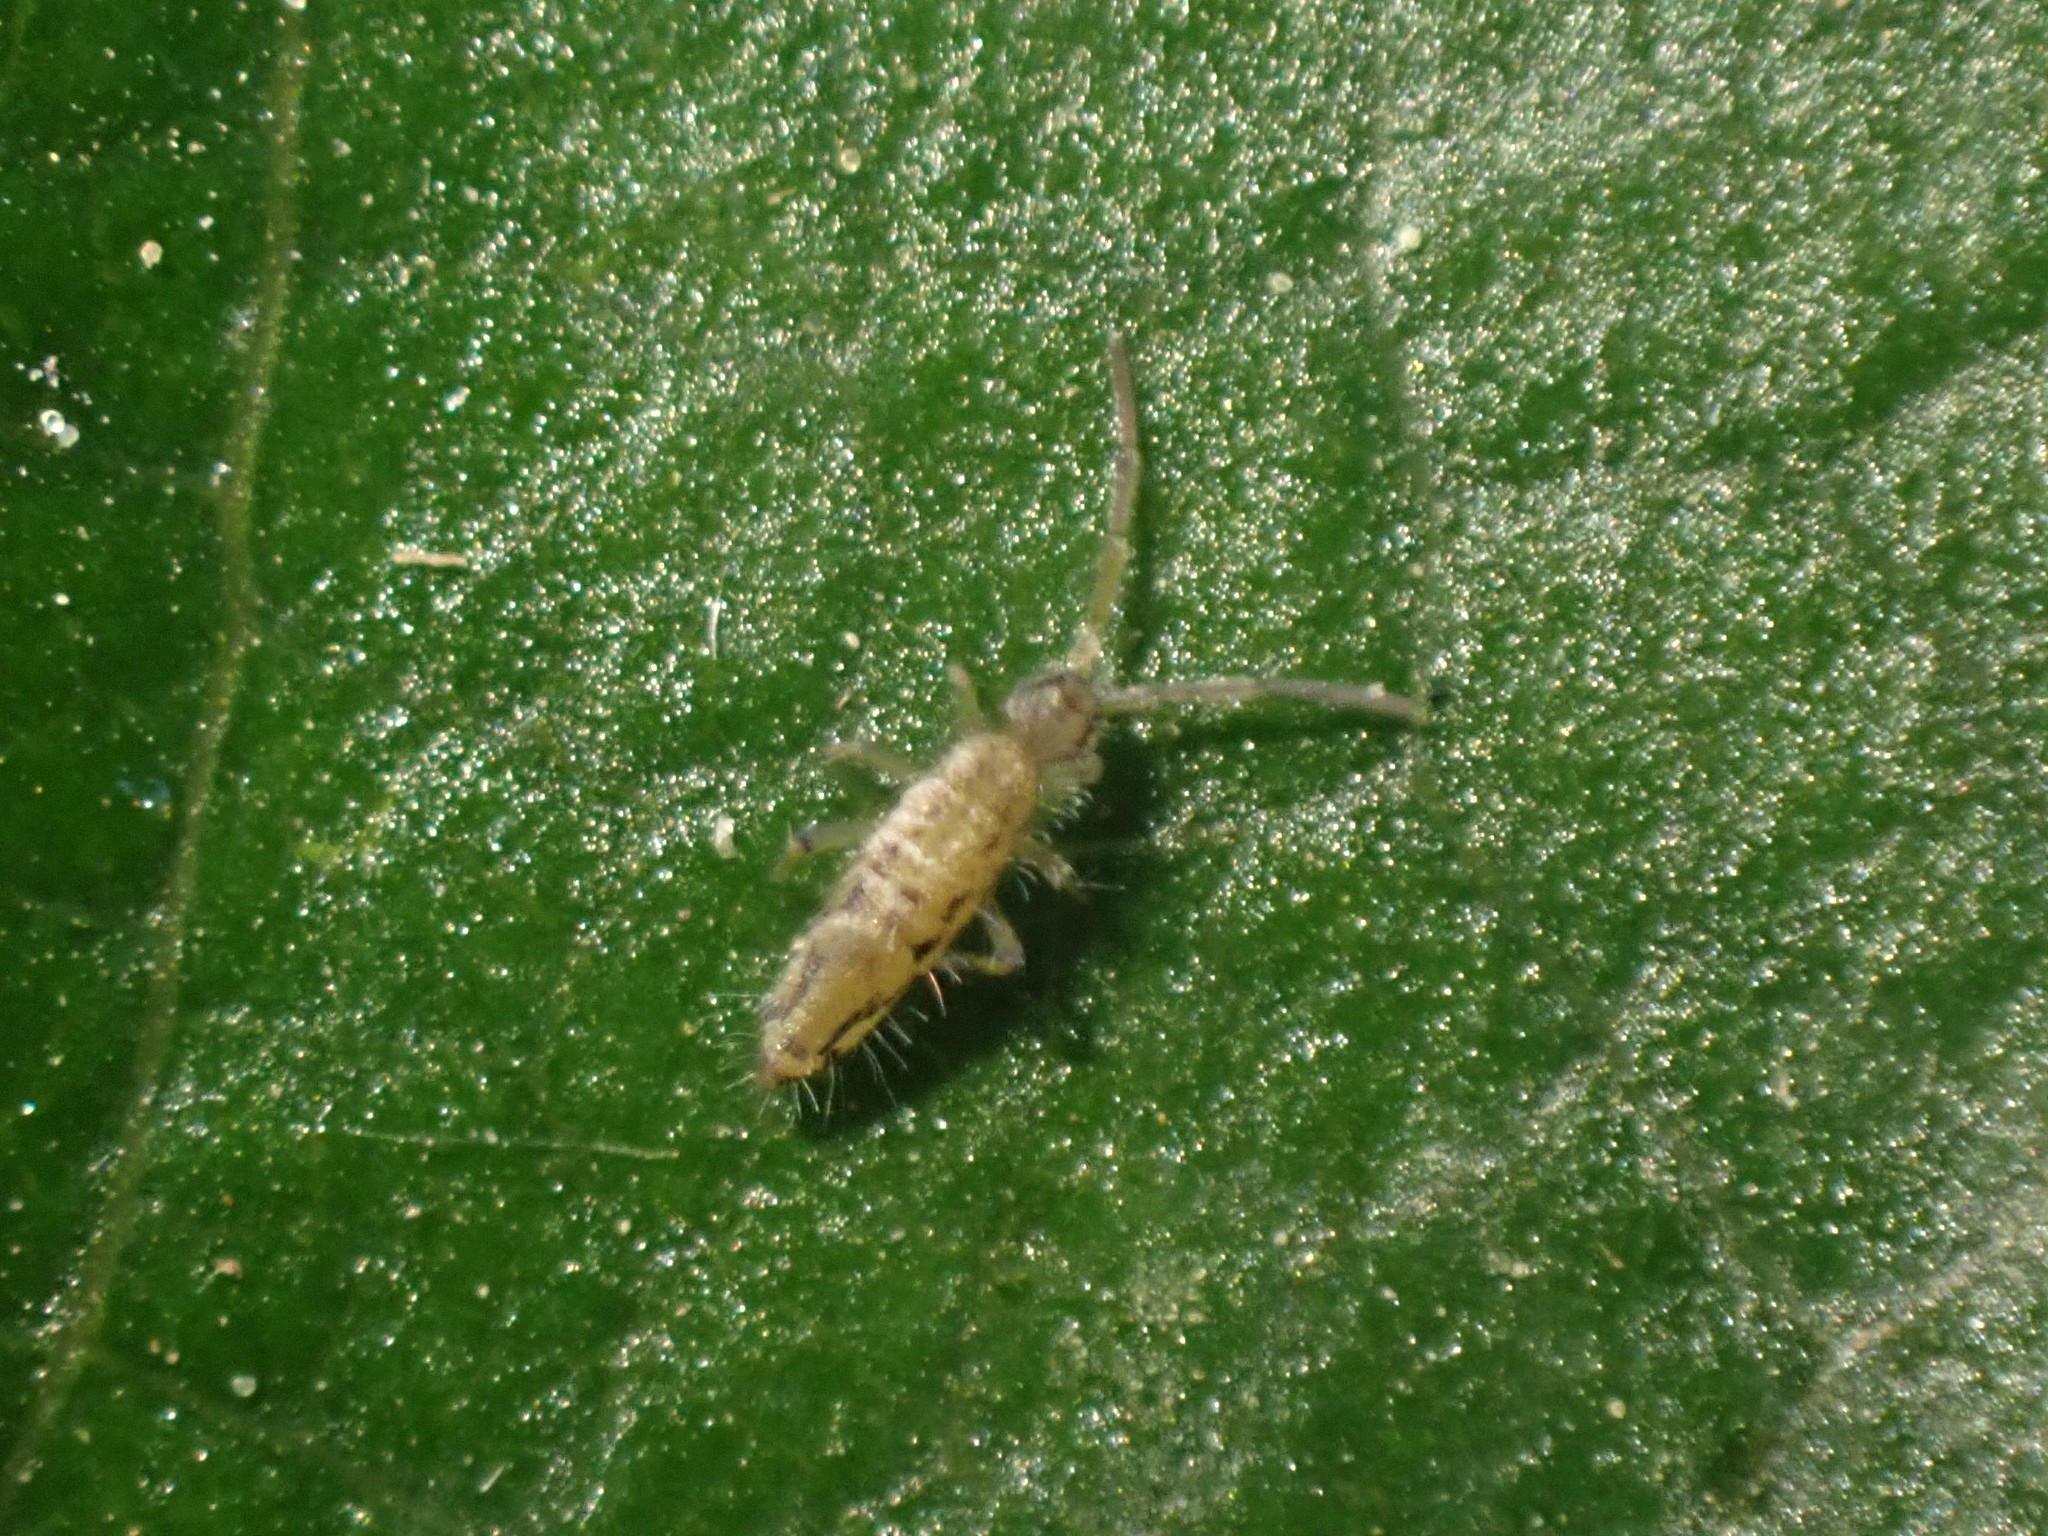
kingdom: Animalia
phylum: Arthropoda
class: Collembola
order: Entomobryomorpha
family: Entomobryidae
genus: Entomobrya
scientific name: Entomobrya katzi
